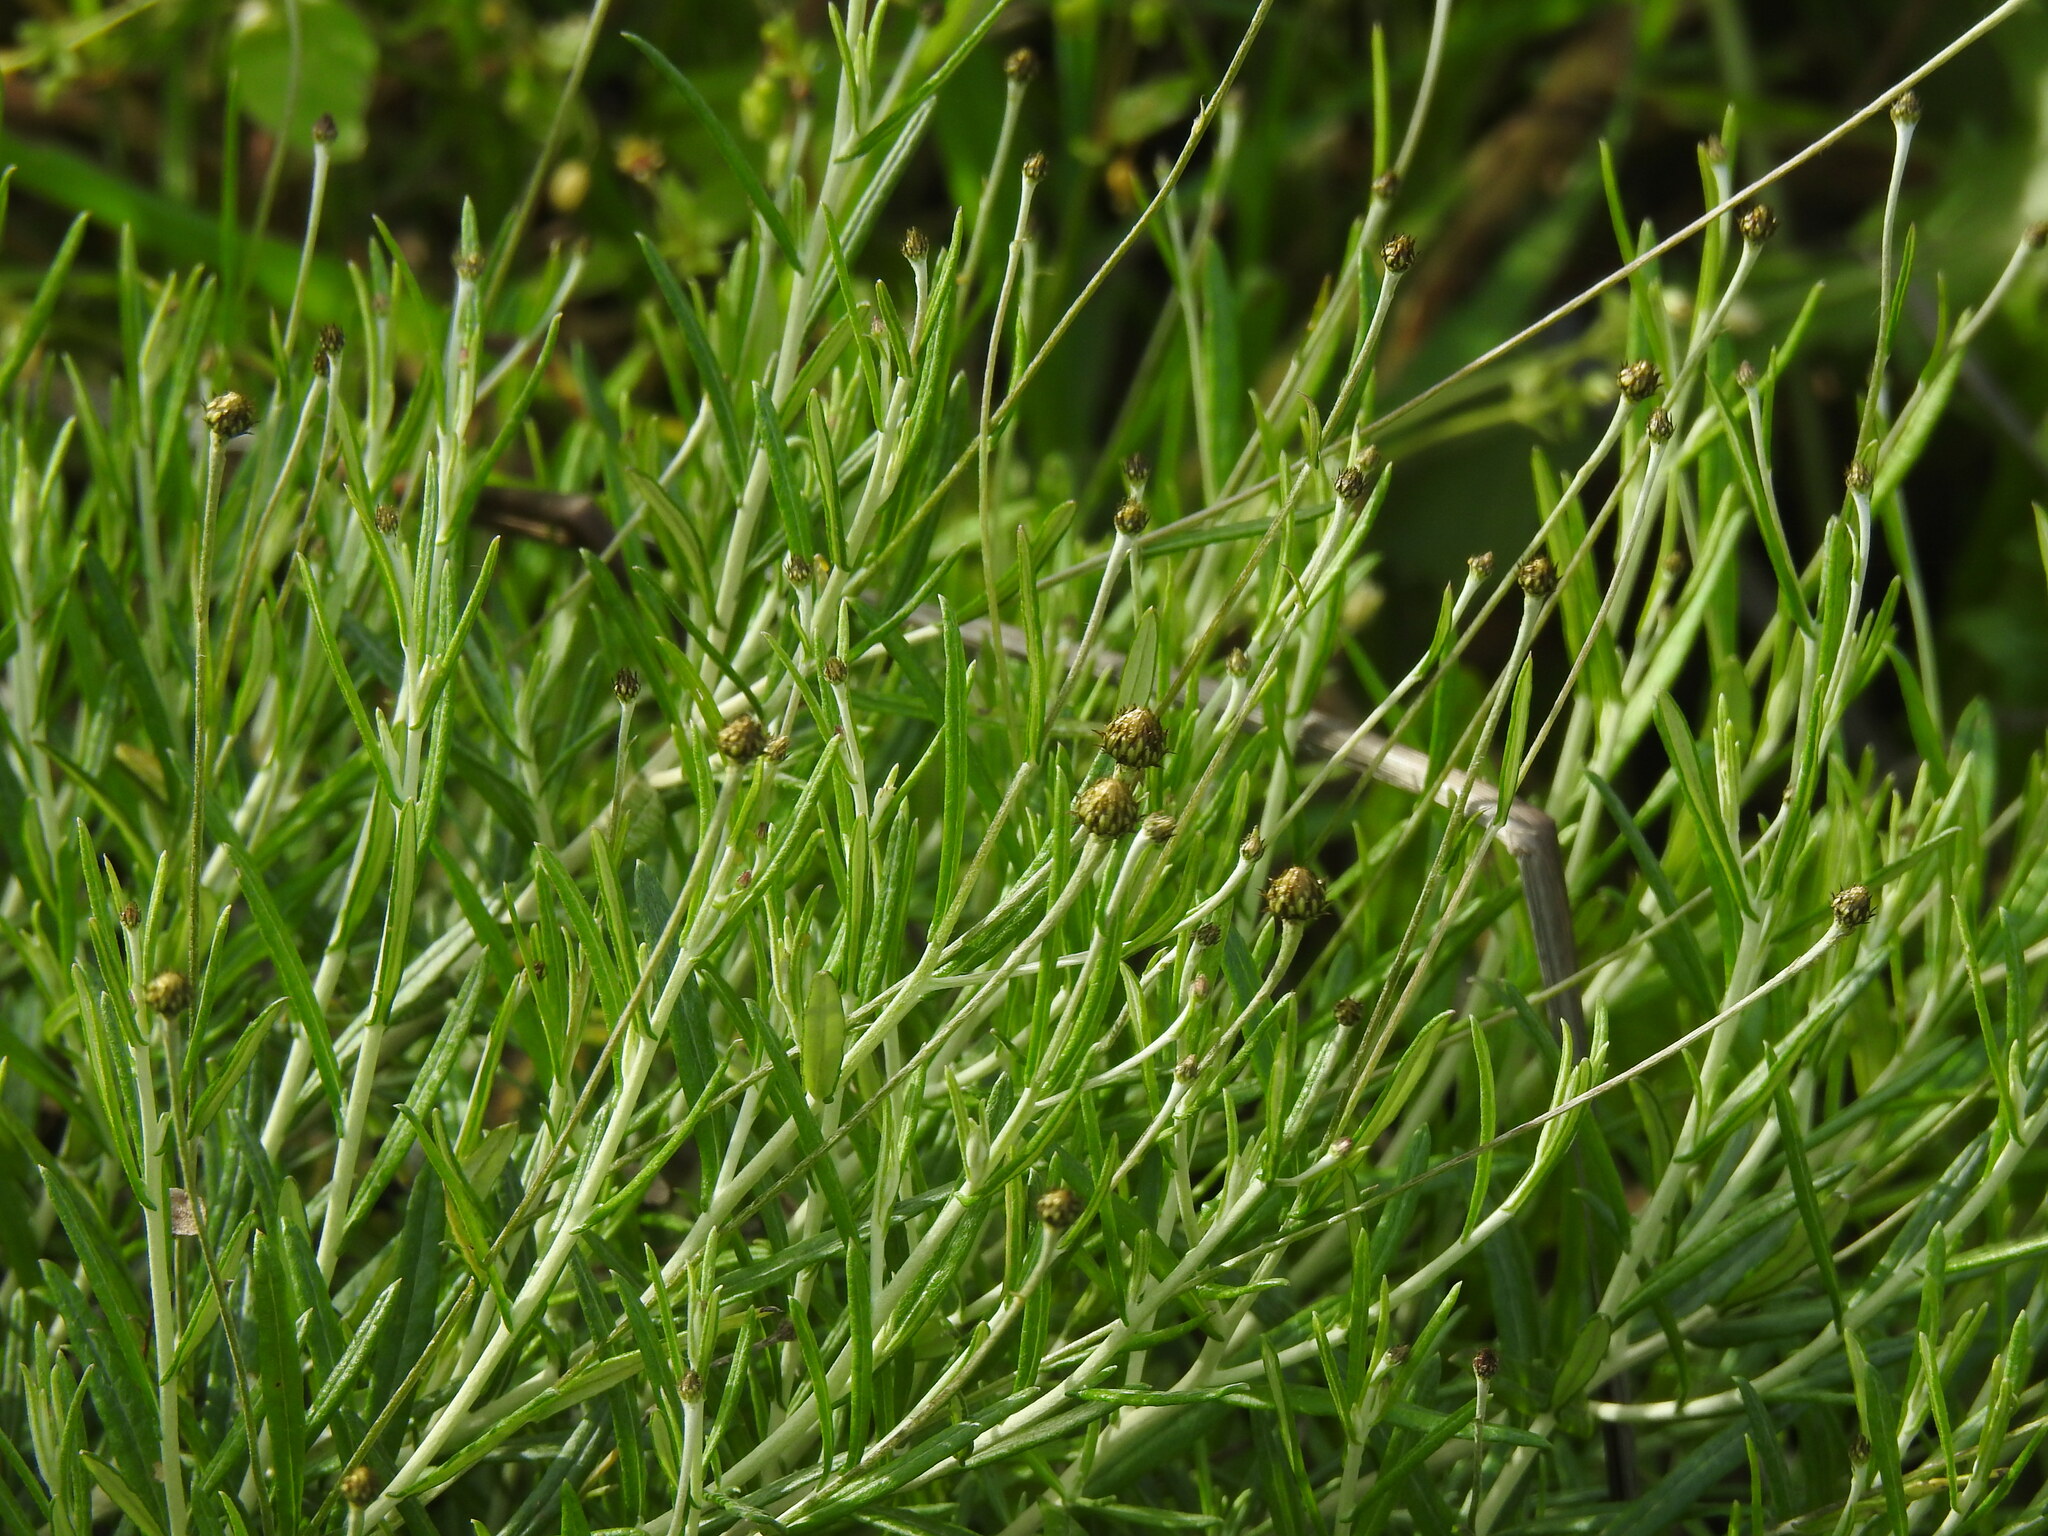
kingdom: Plantae
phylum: Tracheophyta
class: Magnoliopsida
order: Asterales
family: Asteraceae
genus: Phagnalon
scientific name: Phagnalon saxatile
